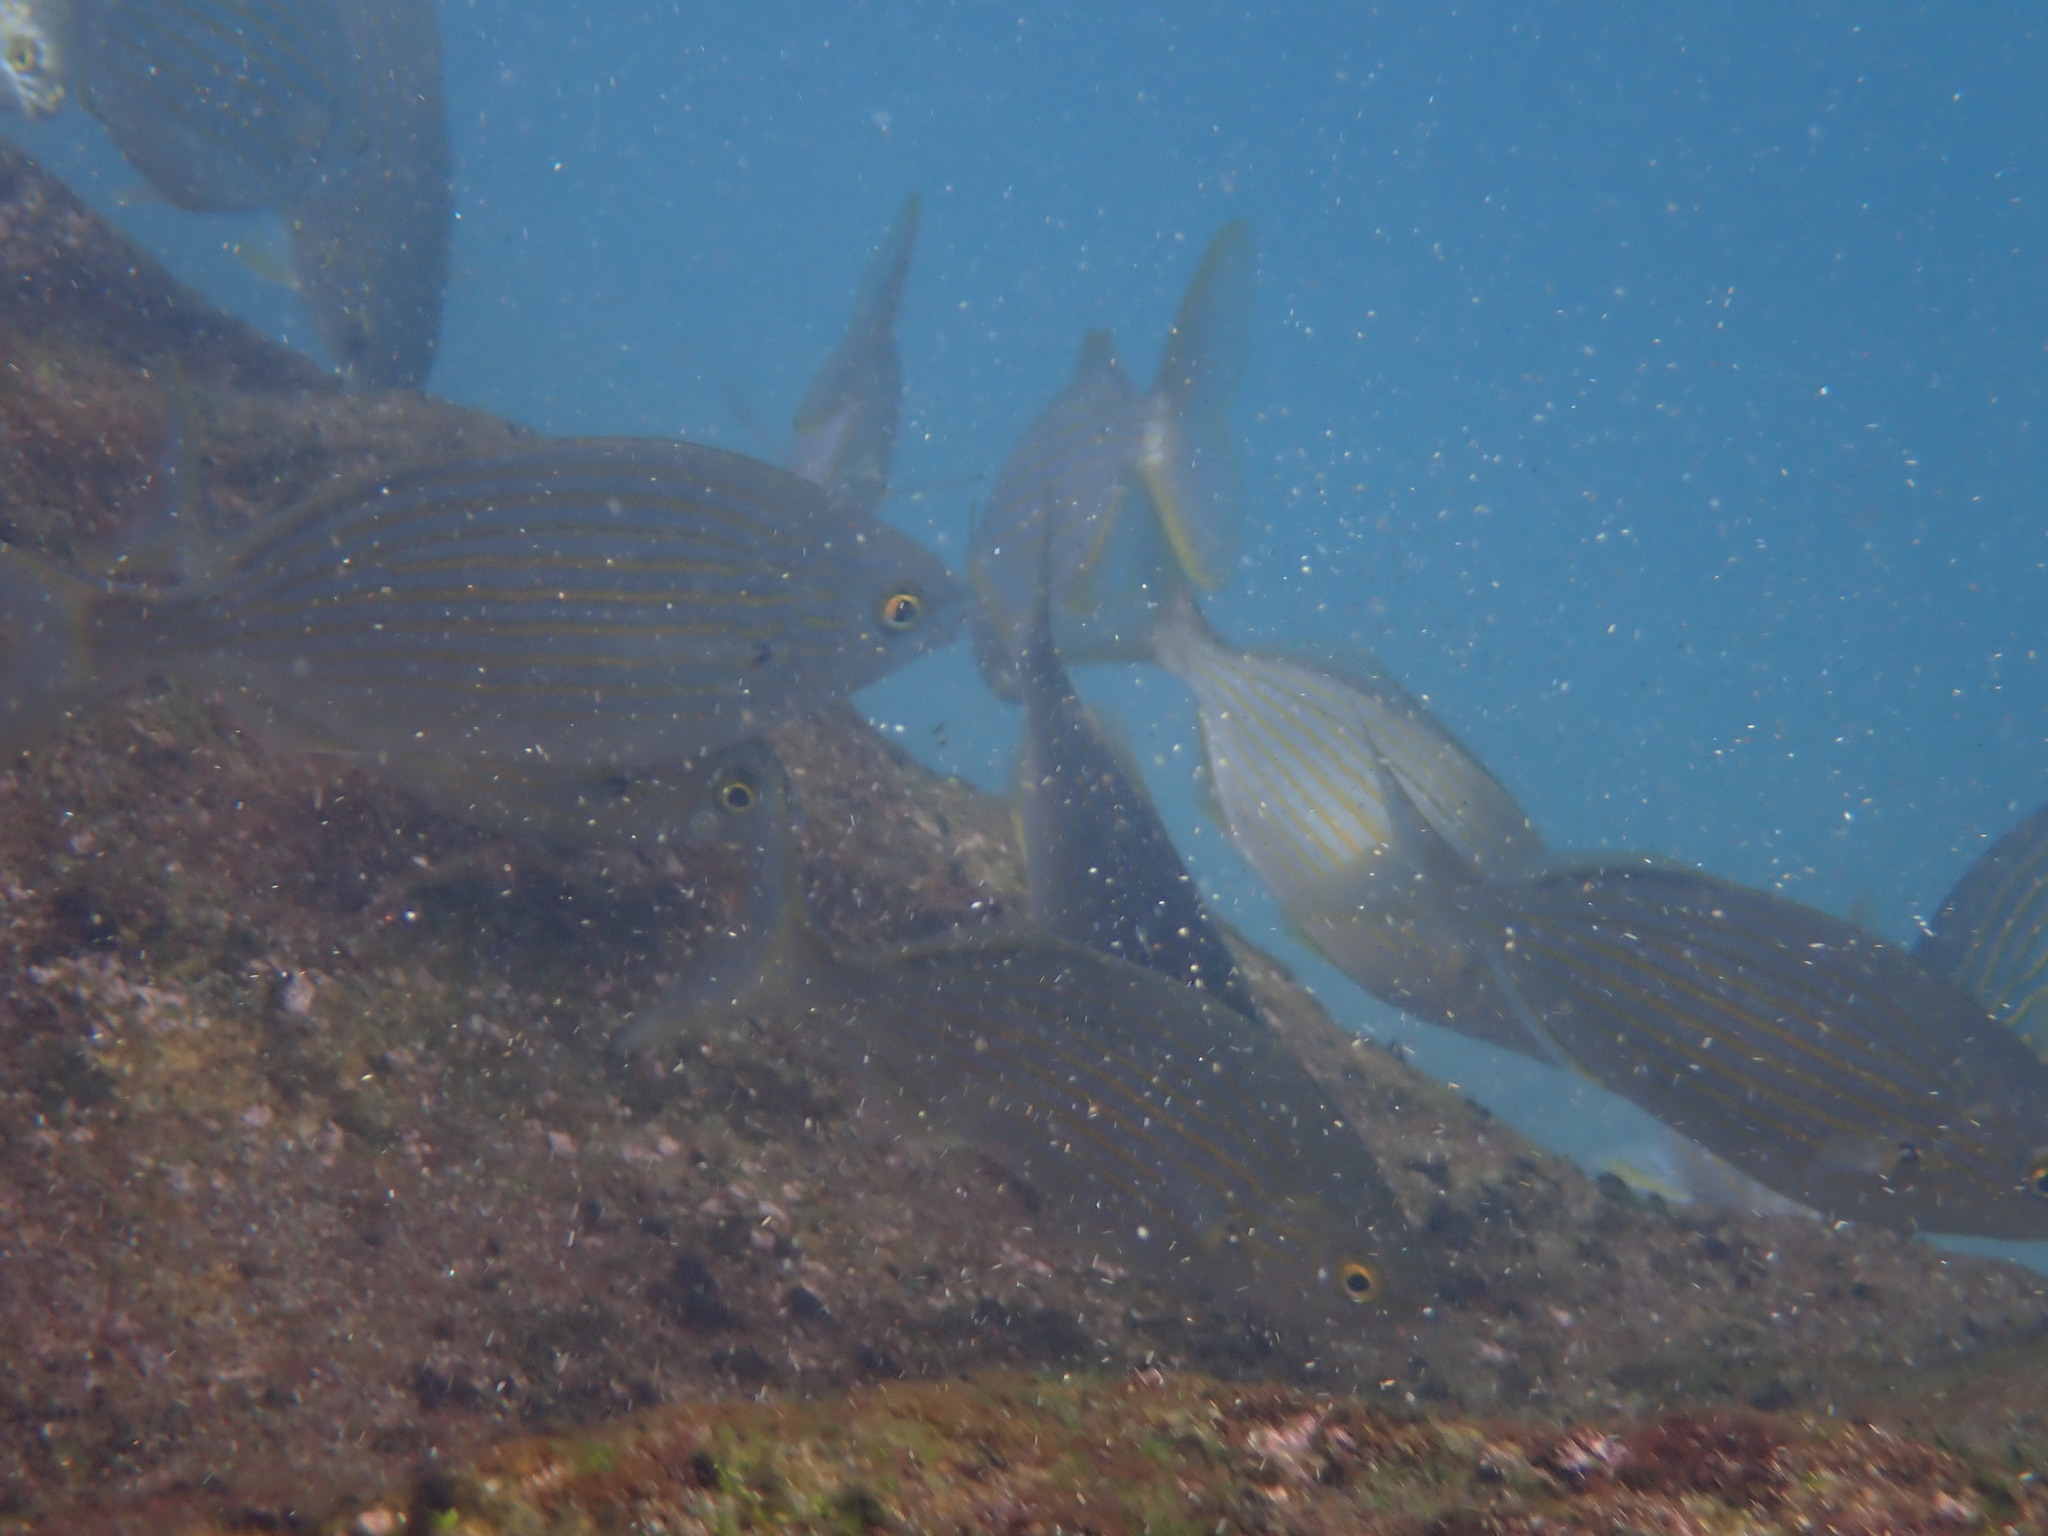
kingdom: Animalia
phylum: Chordata
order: Perciformes
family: Sparidae
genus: Sarpa
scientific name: Sarpa salpa
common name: Salema
